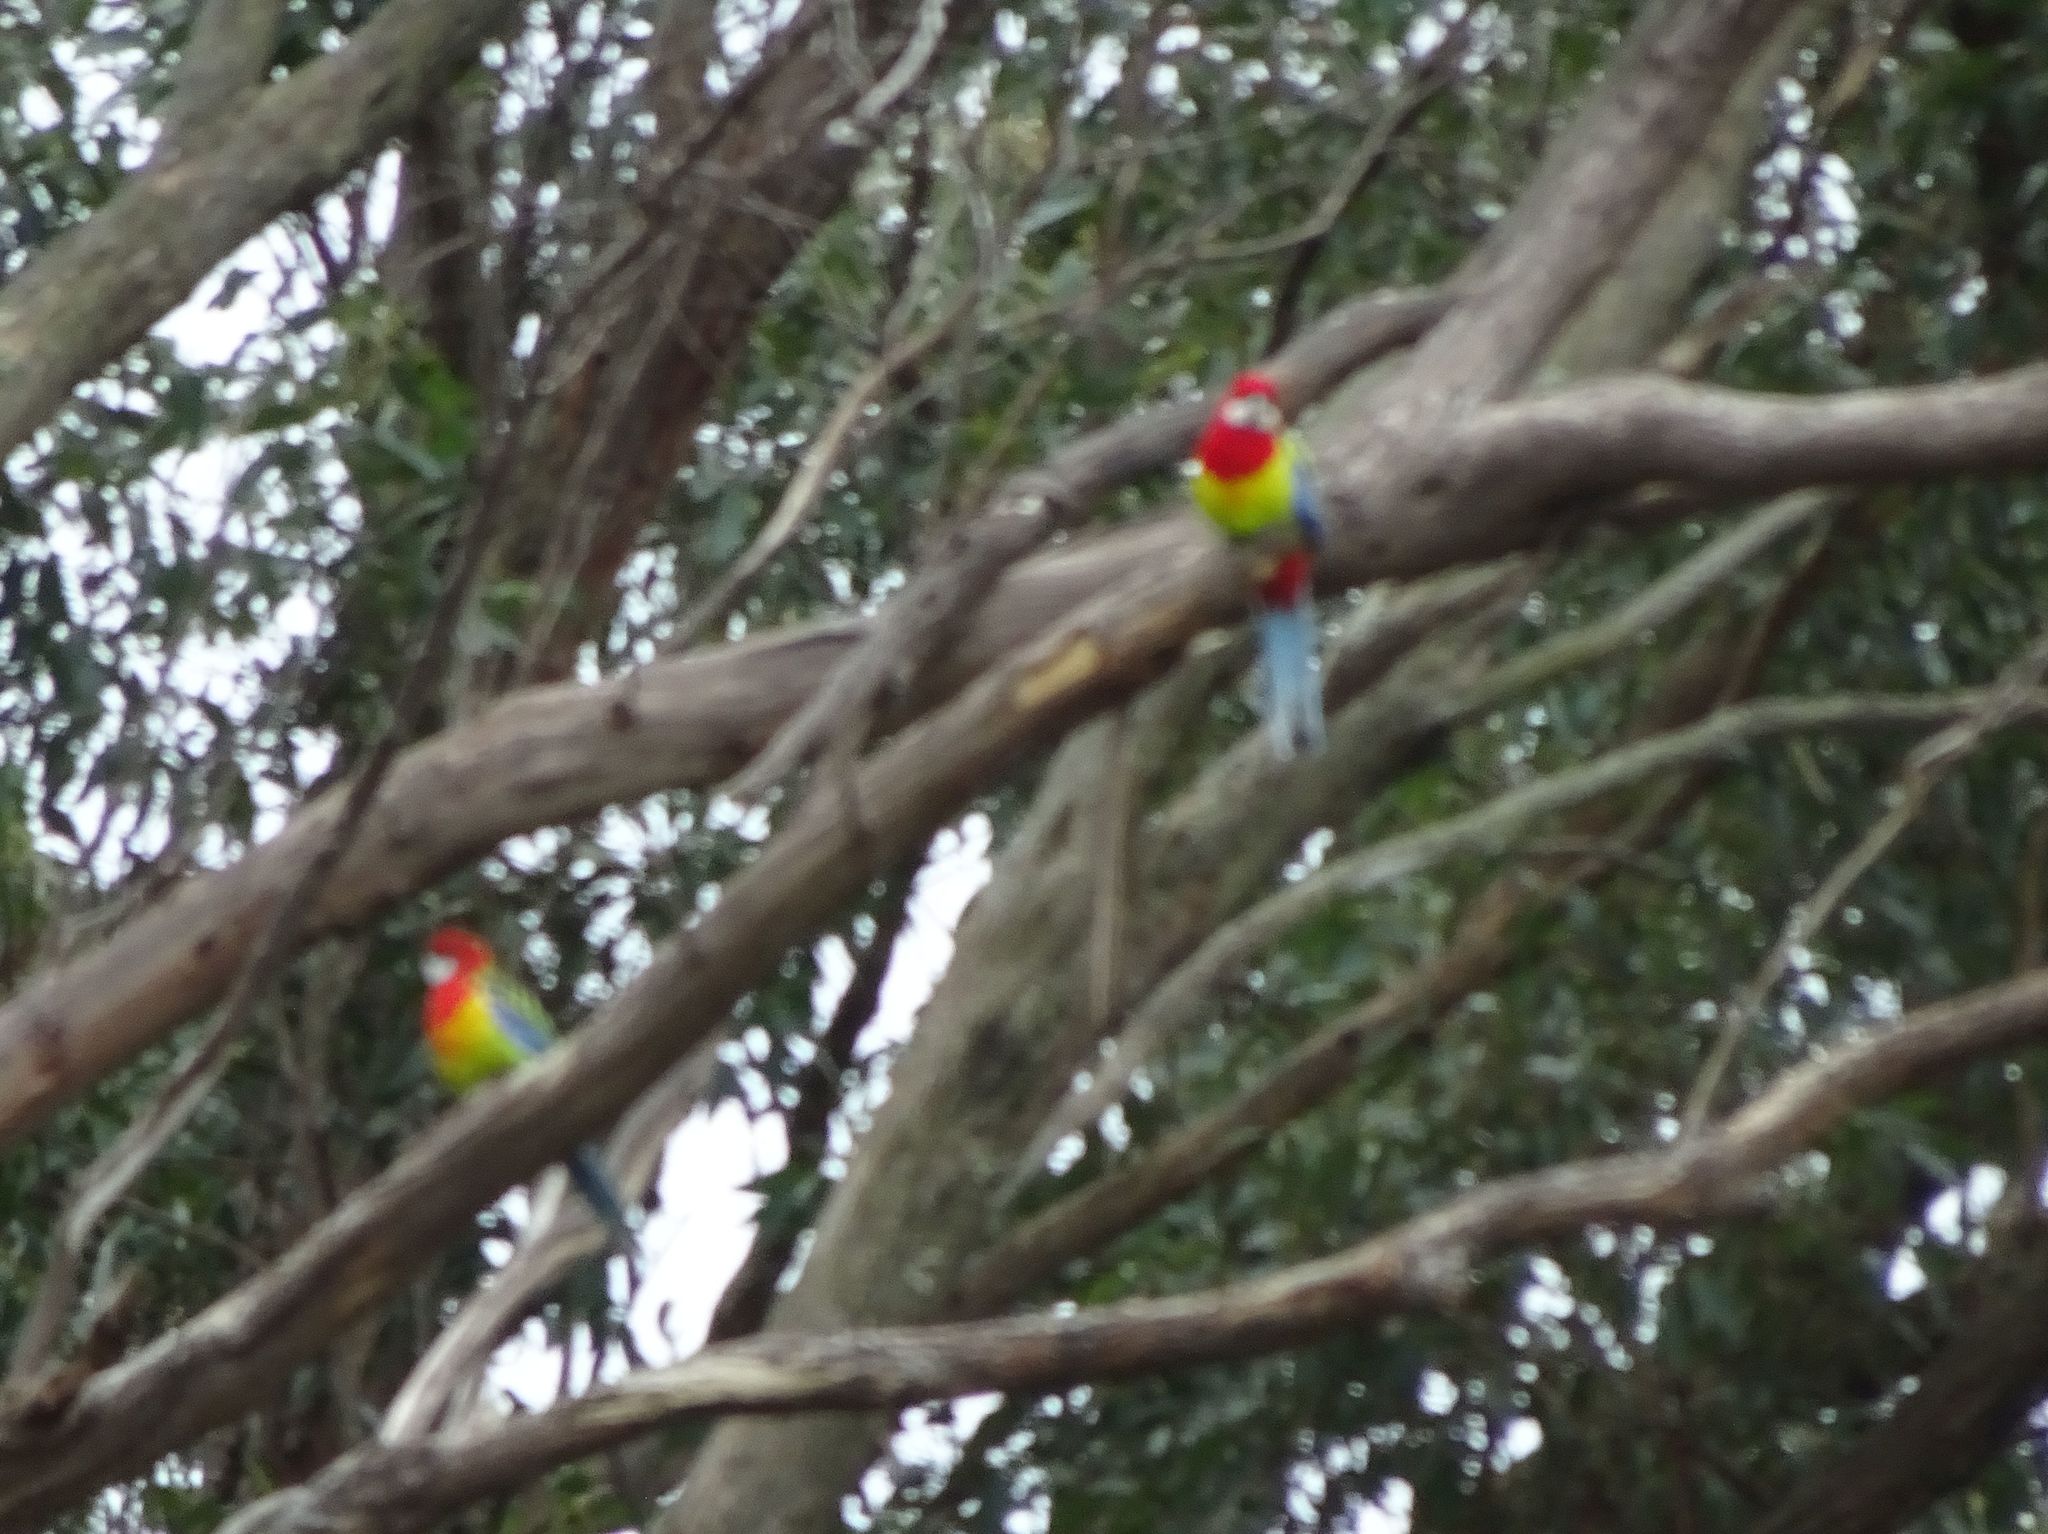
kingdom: Animalia
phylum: Chordata
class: Aves
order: Psittaciformes
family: Psittacidae
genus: Platycercus
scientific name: Platycercus eximius
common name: Eastern rosella
